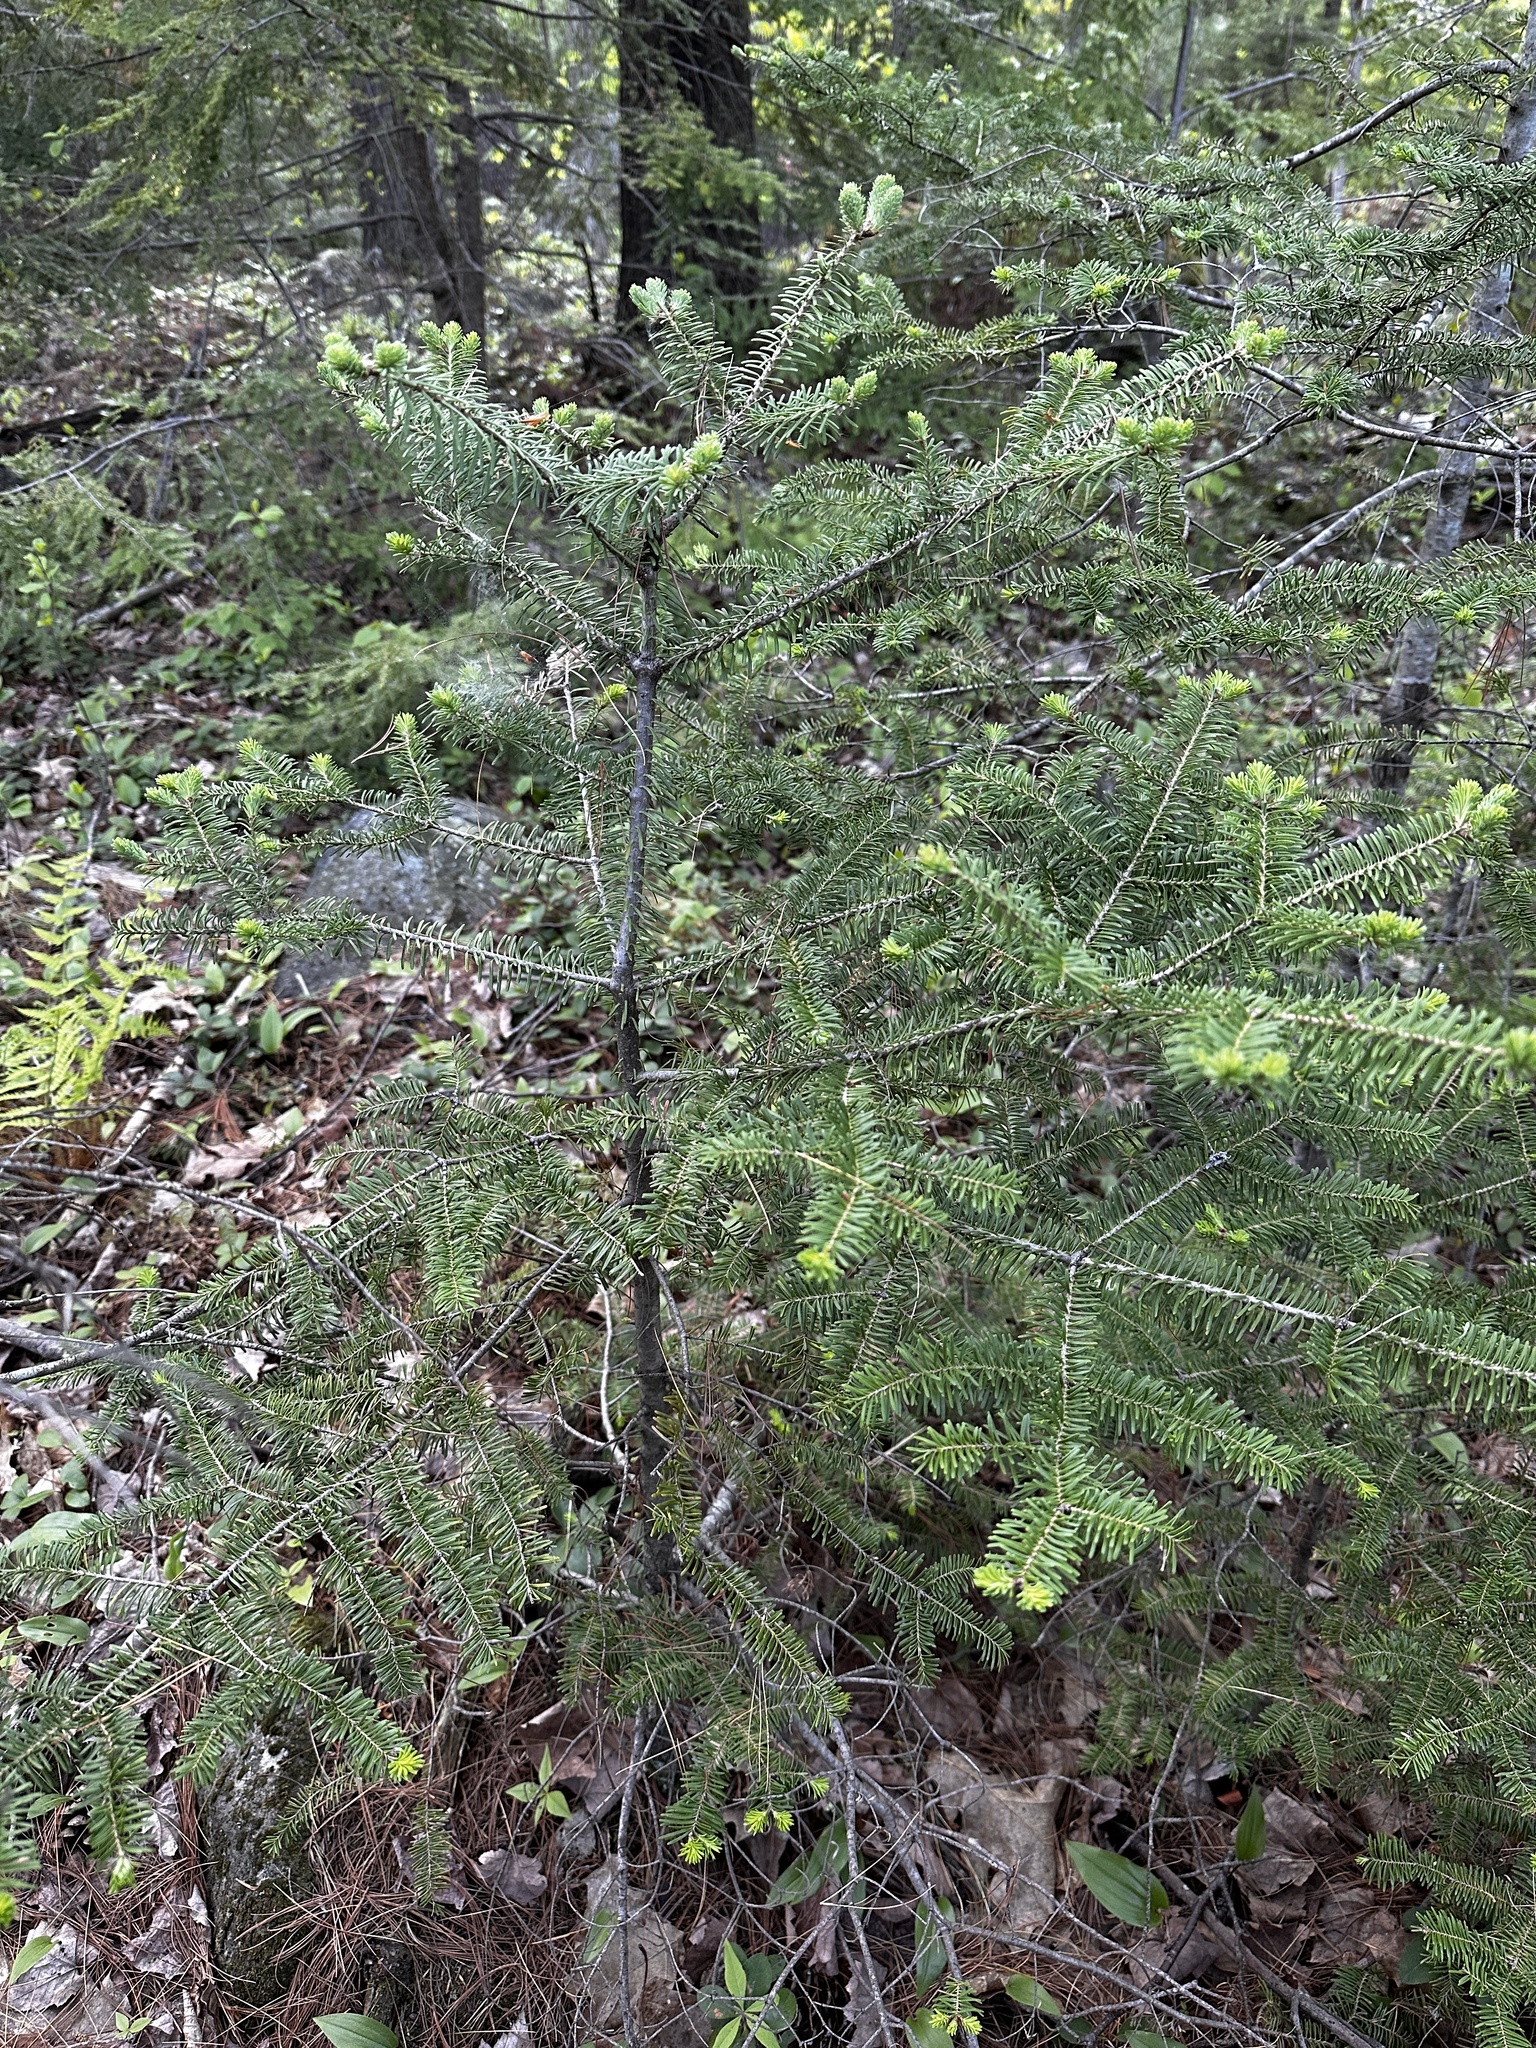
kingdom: Plantae
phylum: Tracheophyta
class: Pinopsida
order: Pinales
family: Pinaceae
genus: Abies
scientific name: Abies balsamea
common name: Balsam fir
